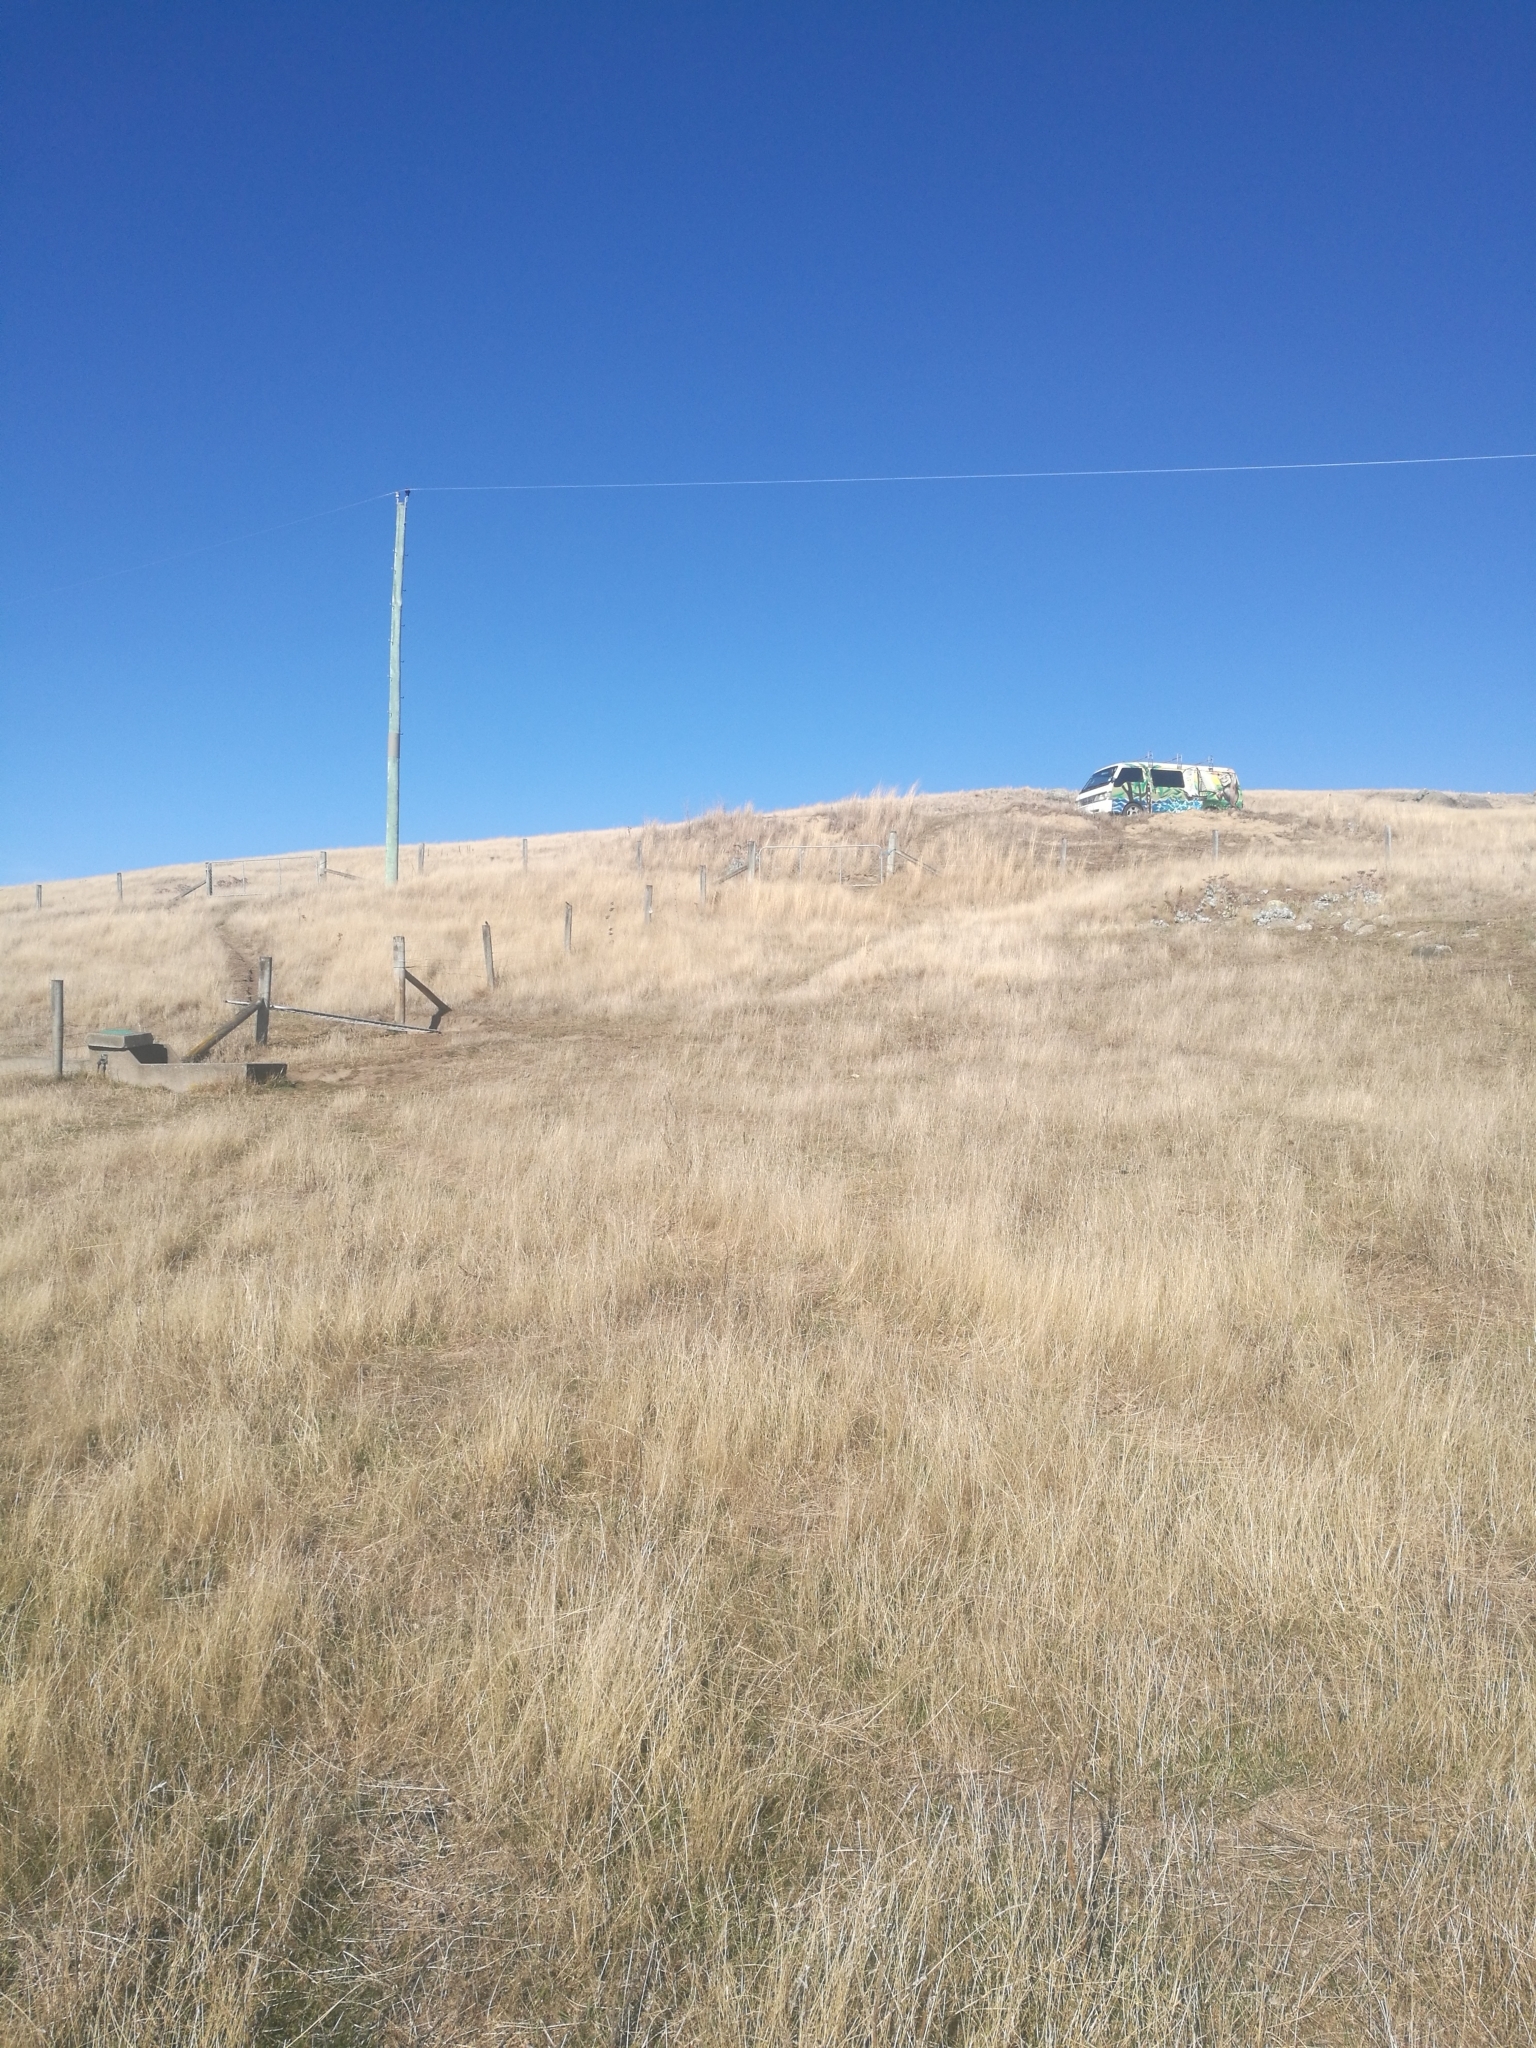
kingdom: Animalia
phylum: Chordata
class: Aves
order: Passeriformes
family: Hirundinidae
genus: Hirundo
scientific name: Hirundo neoxena
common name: Welcome swallow
